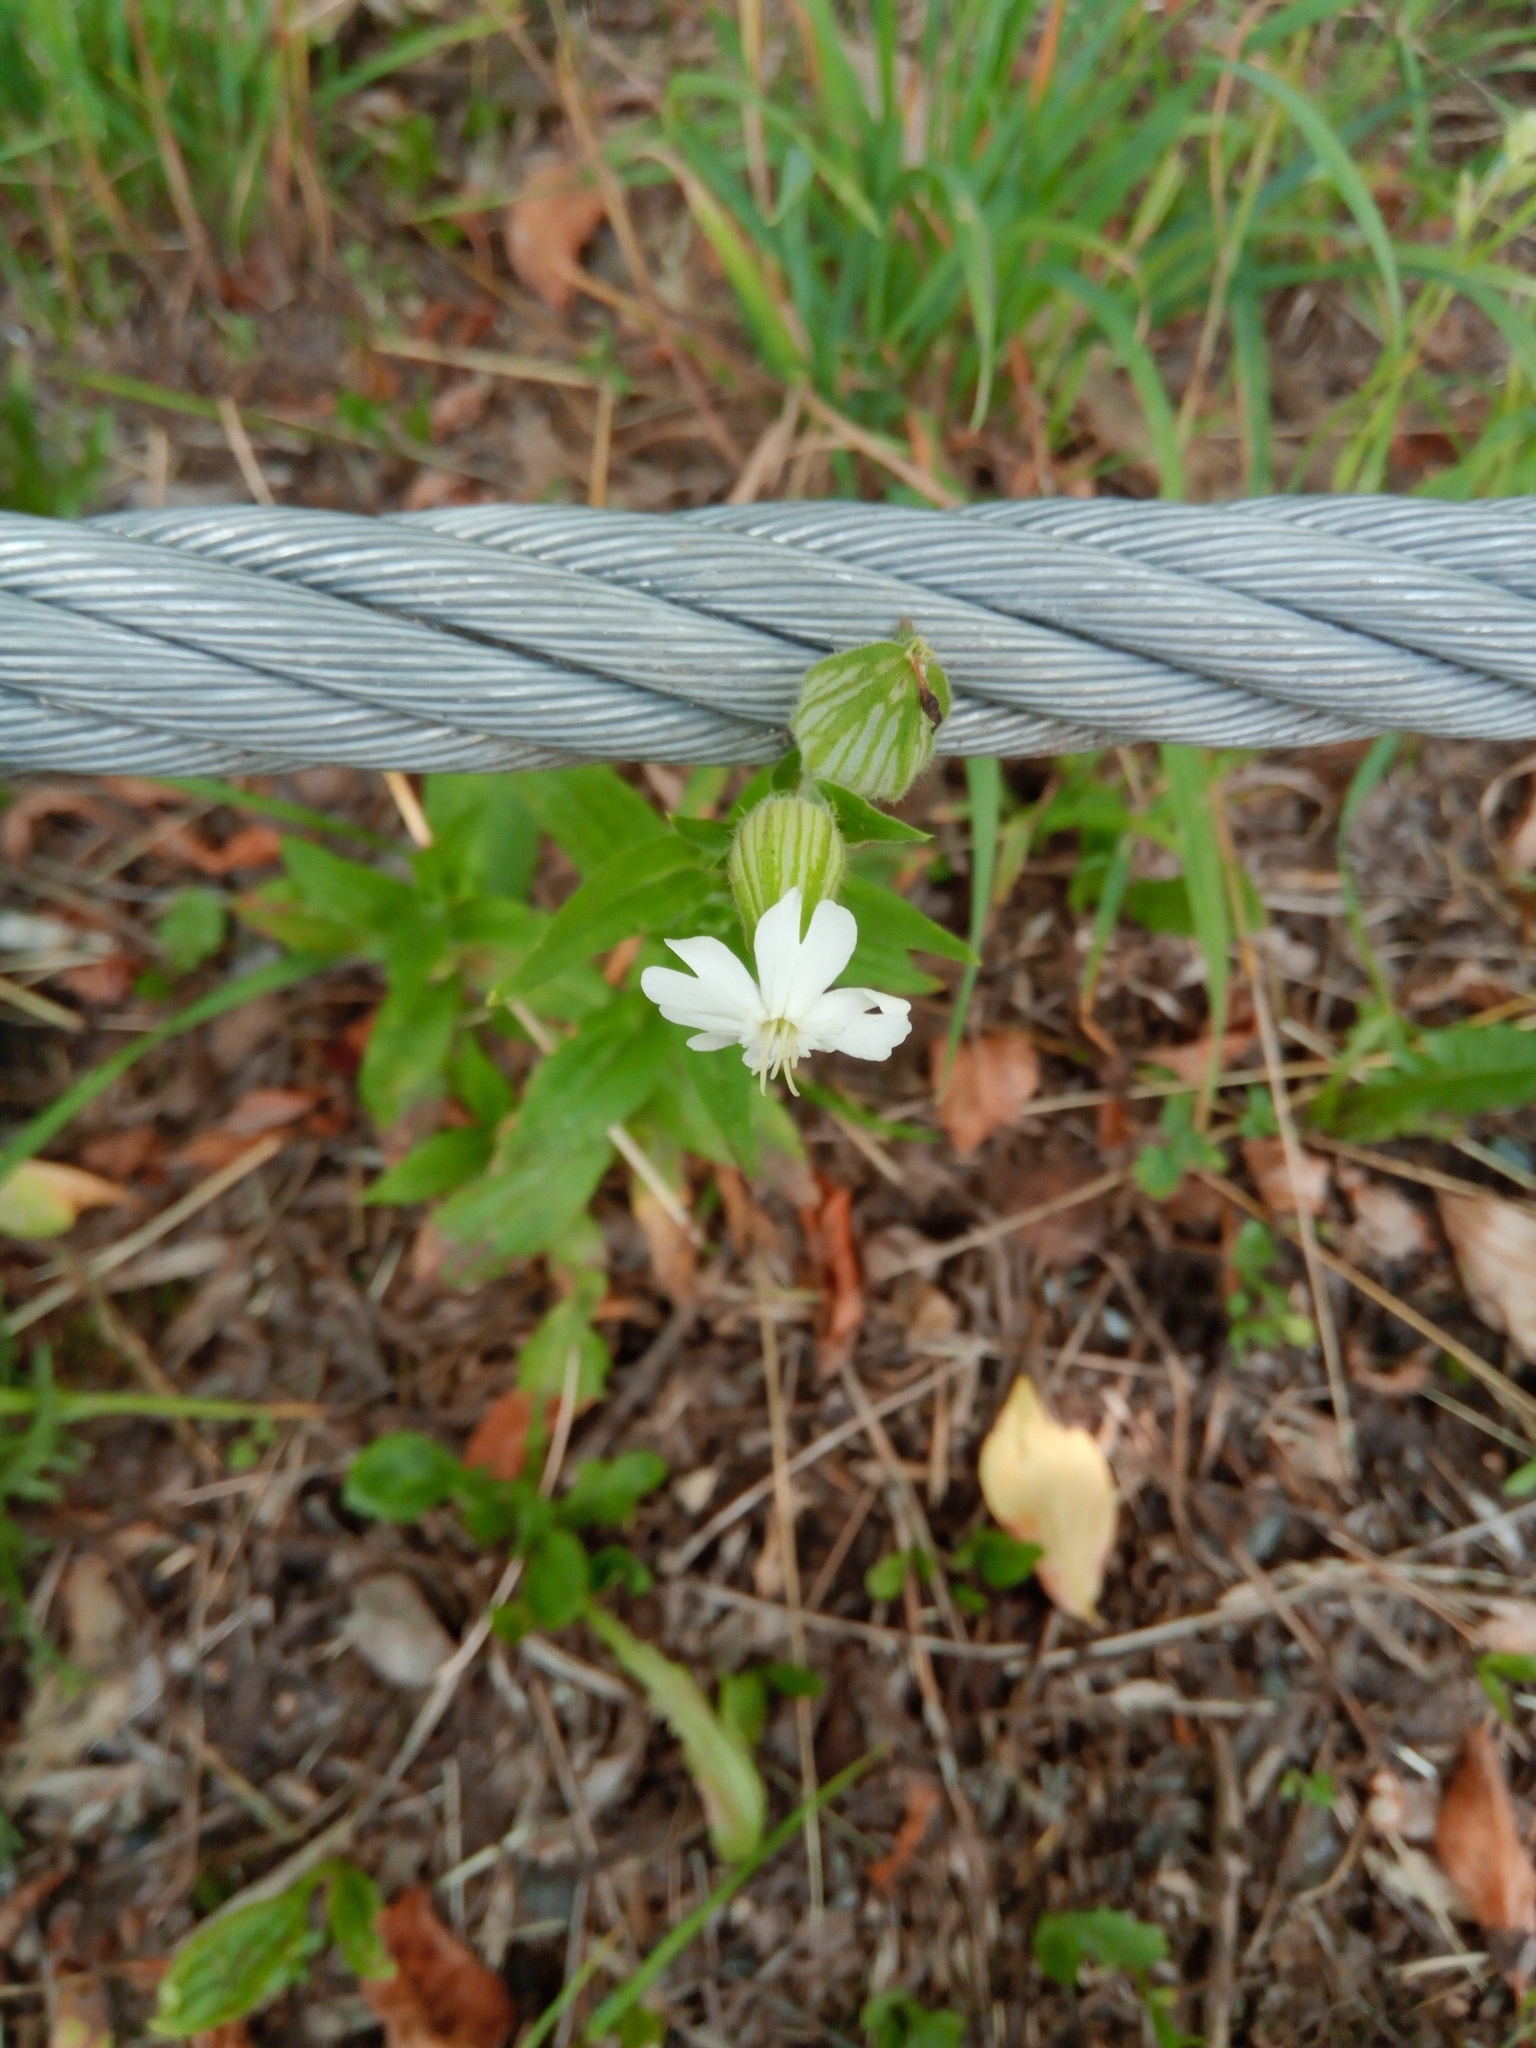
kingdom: Plantae
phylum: Tracheophyta
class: Magnoliopsida
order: Caryophyllales
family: Caryophyllaceae
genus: Silene
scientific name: Silene latifolia
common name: White campion
